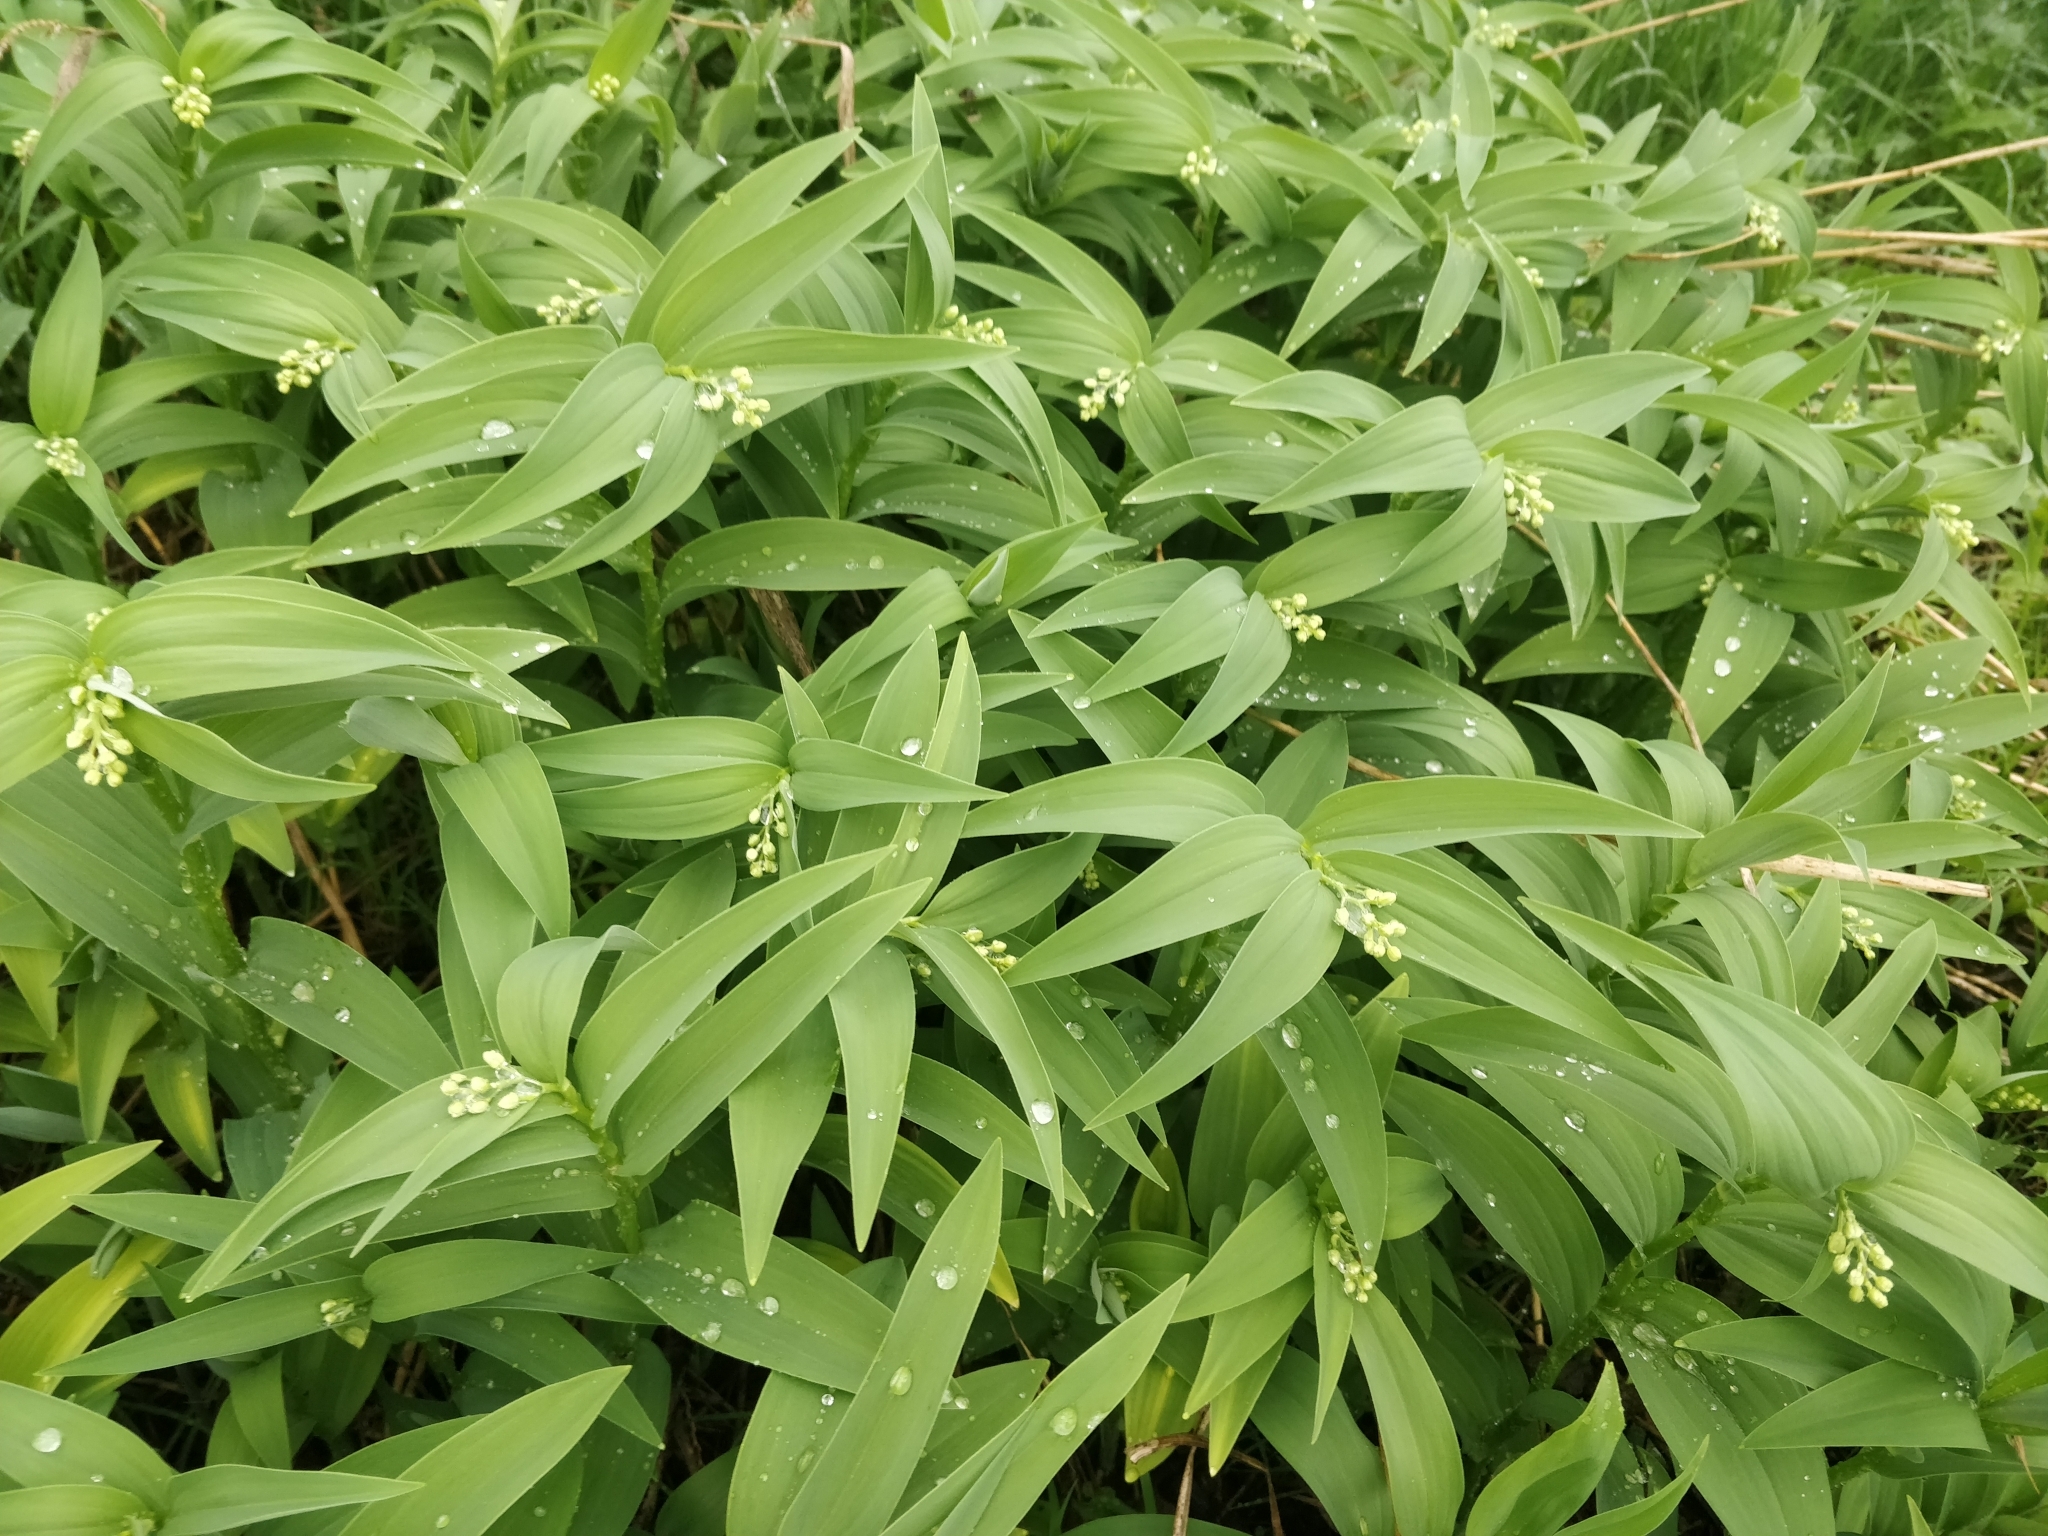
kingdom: Plantae
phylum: Tracheophyta
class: Liliopsida
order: Asparagales
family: Asparagaceae
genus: Maianthemum
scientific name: Maianthemum stellatum
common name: Little false solomon's seal
